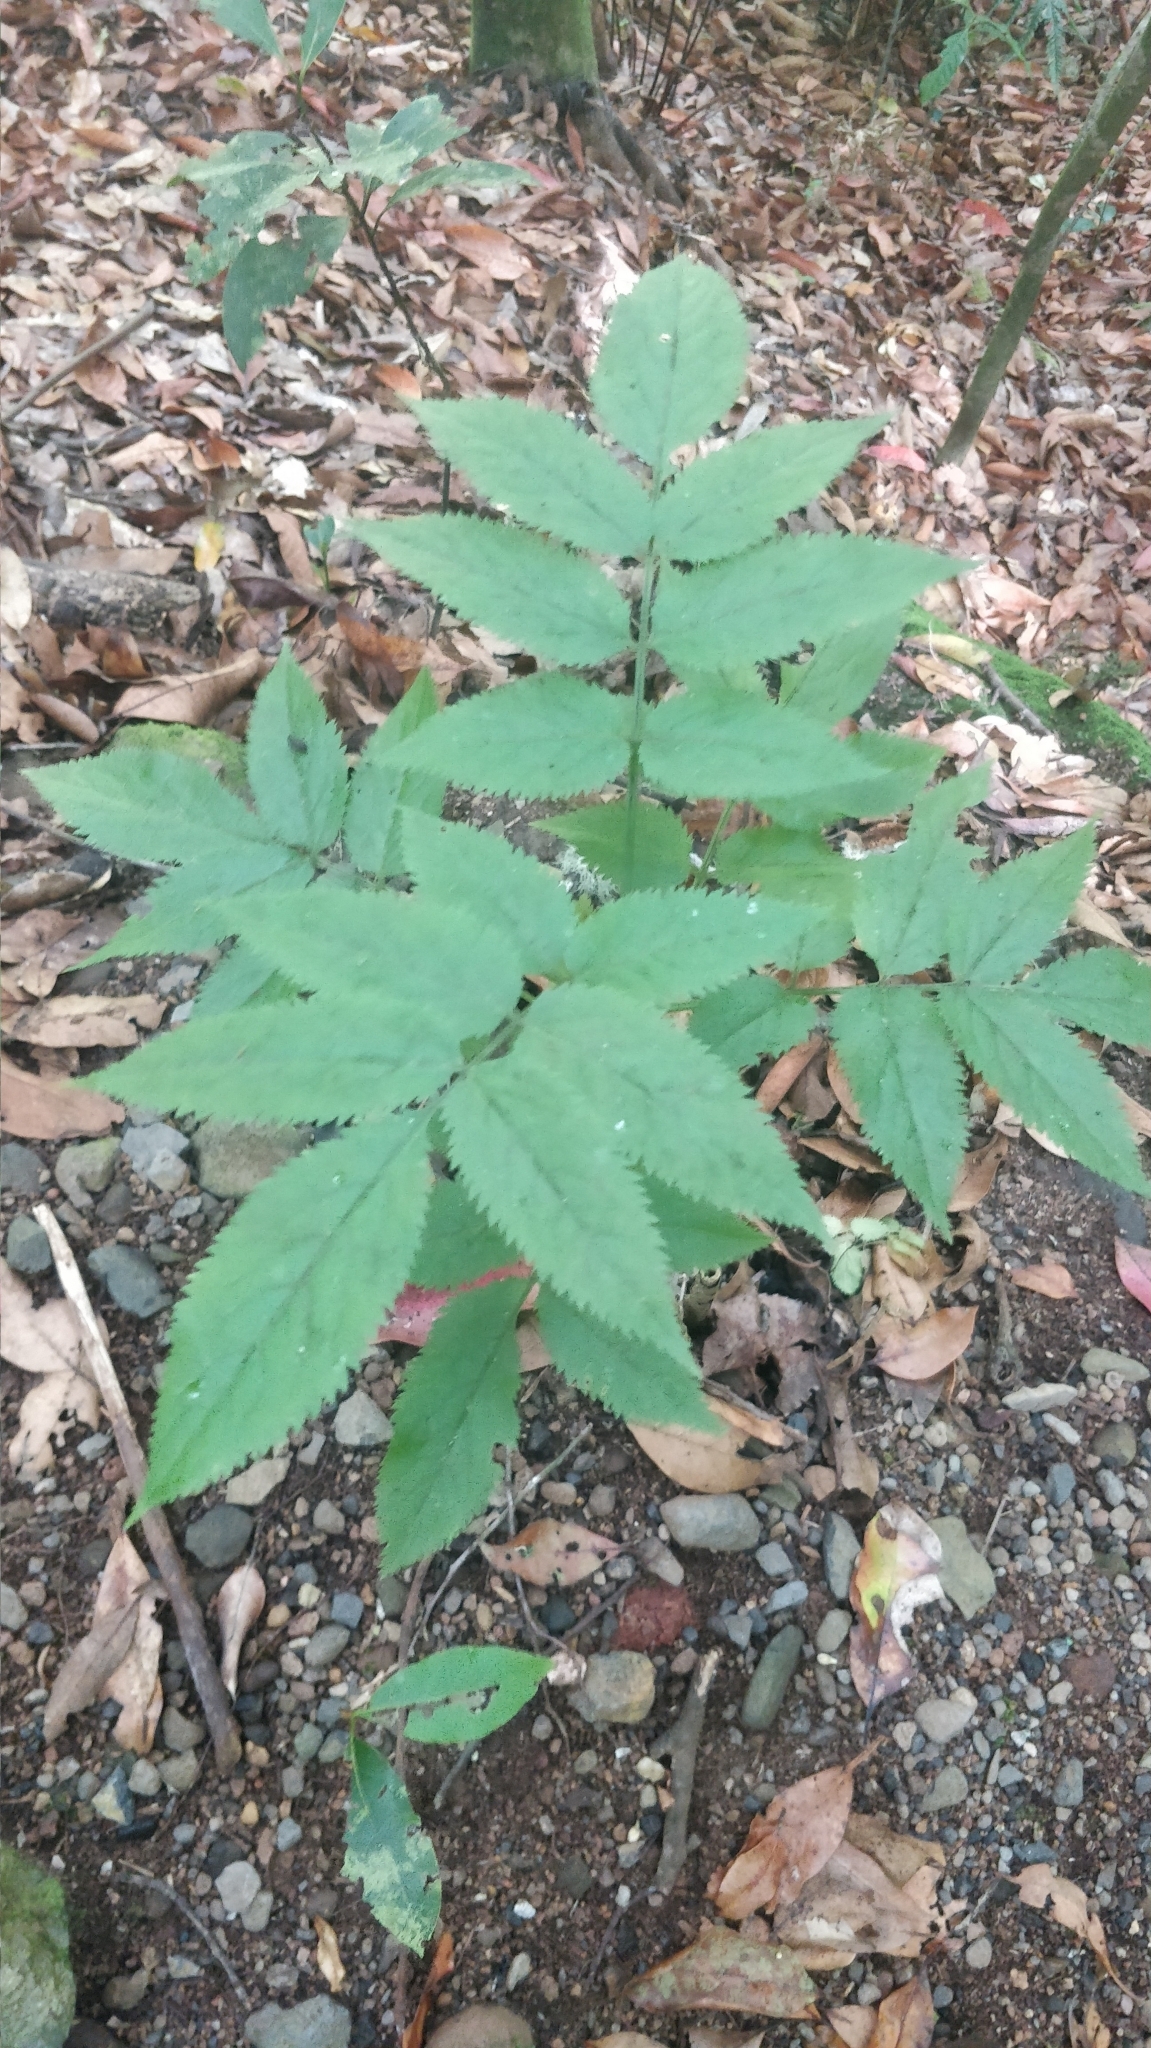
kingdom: Plantae
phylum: Tracheophyta
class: Magnoliopsida
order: Dipsacales
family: Viburnaceae
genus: Sambucus
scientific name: Sambucus lanceolata
